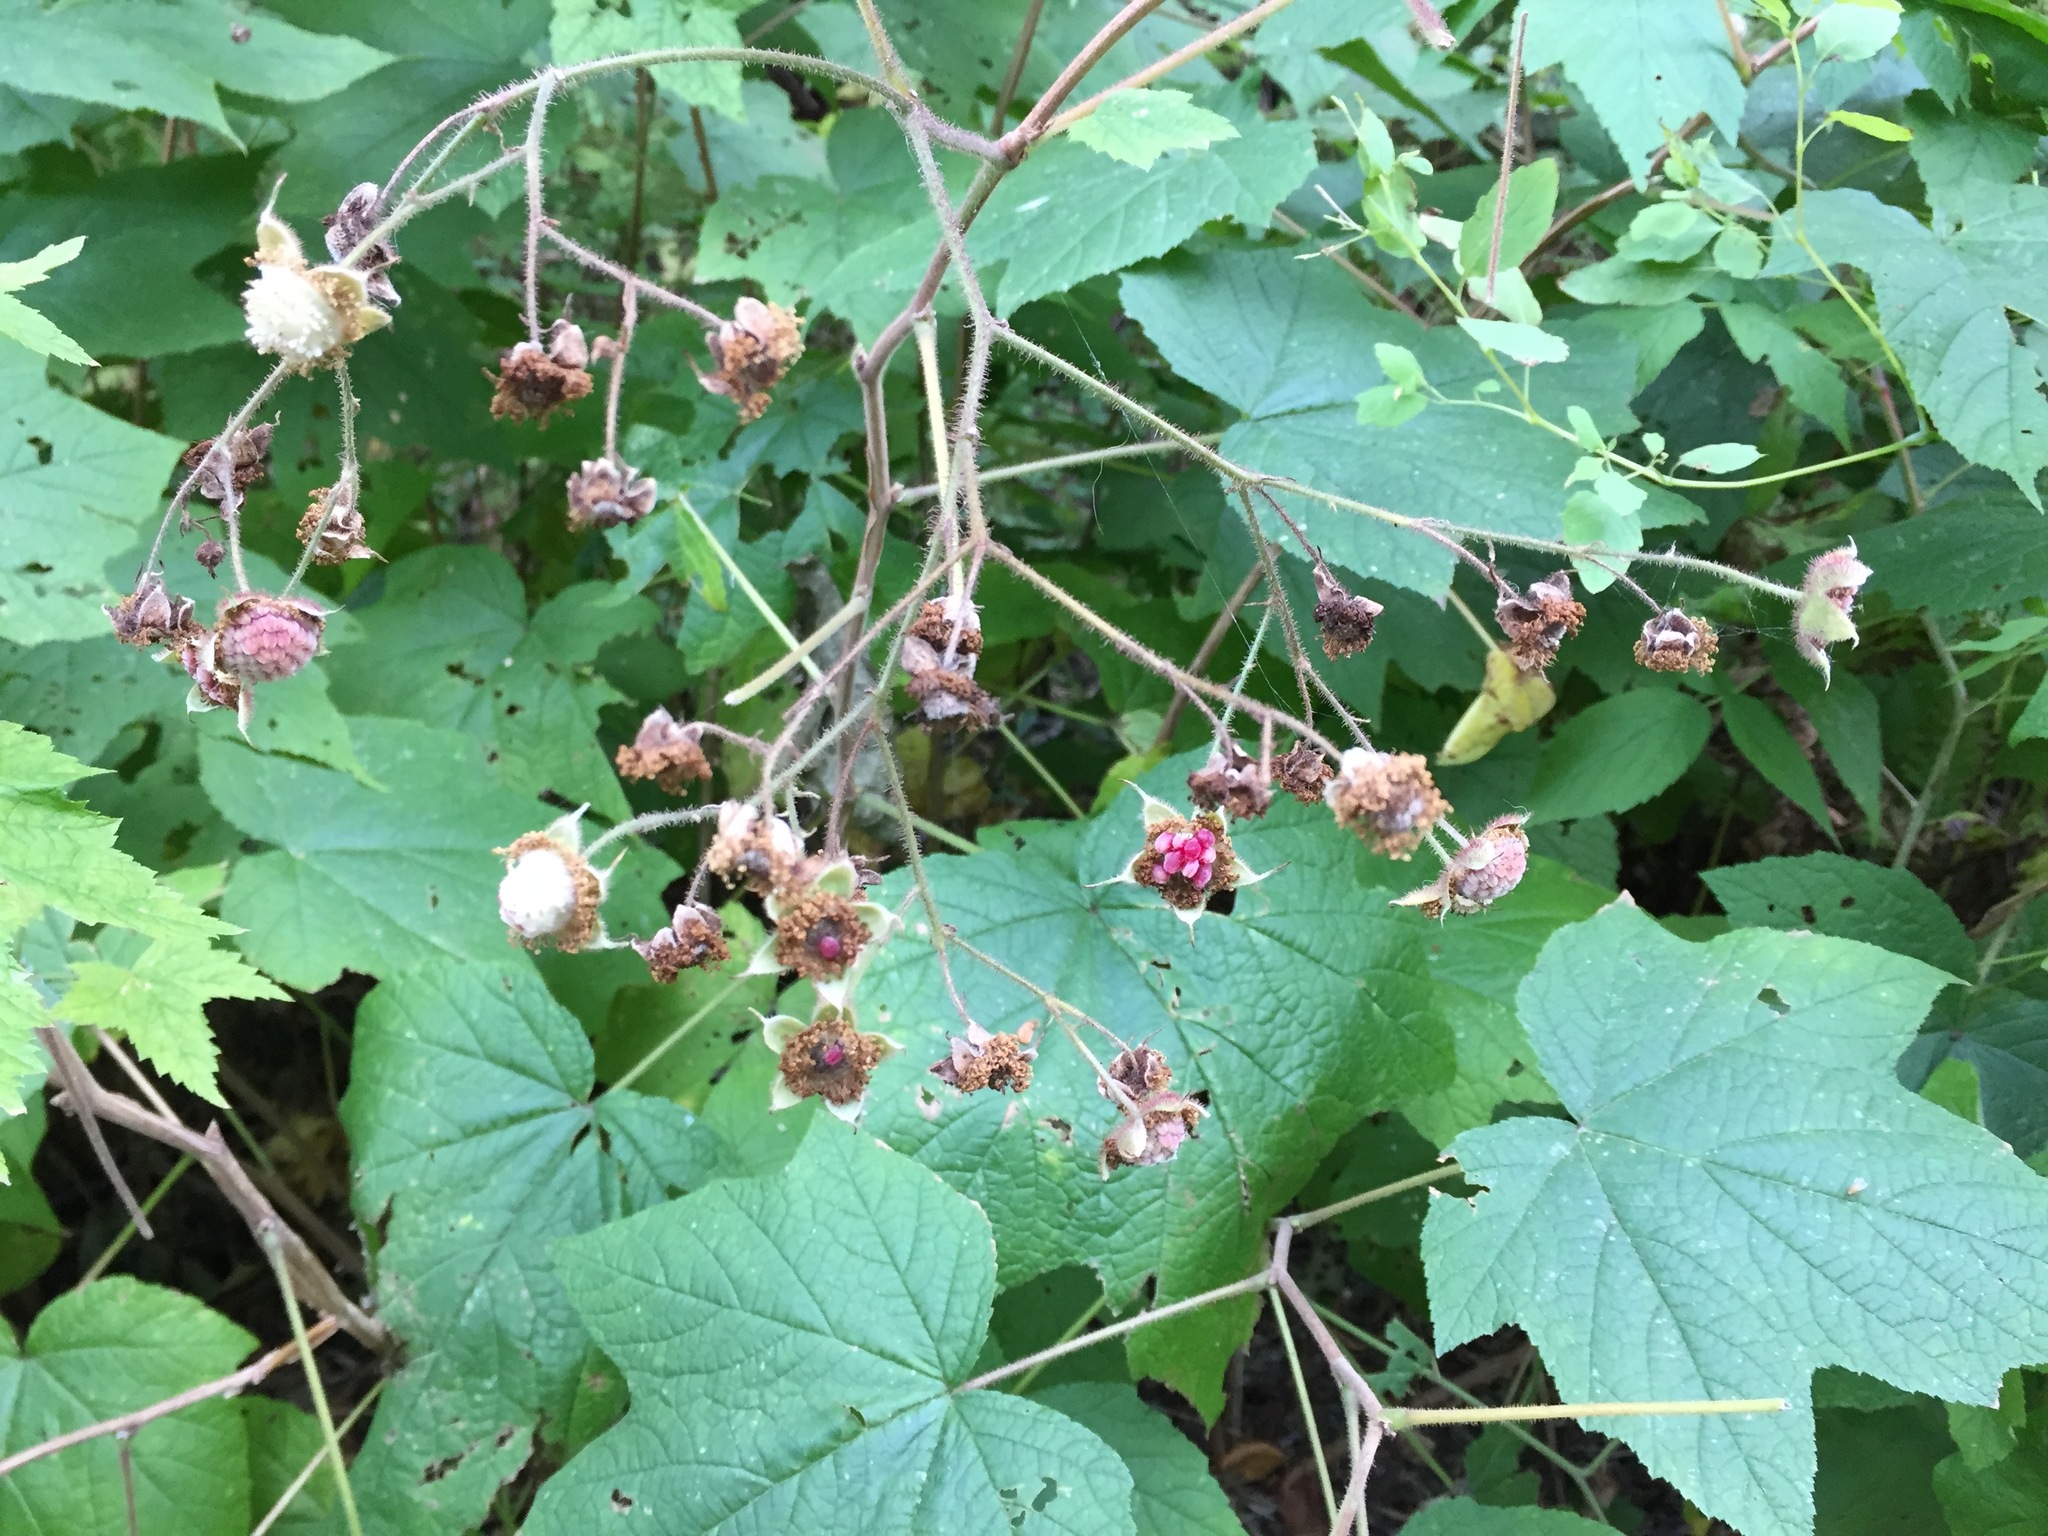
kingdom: Plantae
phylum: Tracheophyta
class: Magnoliopsida
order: Rosales
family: Rosaceae
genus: Rubus
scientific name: Rubus odoratus
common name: Purple-flowered raspberry
